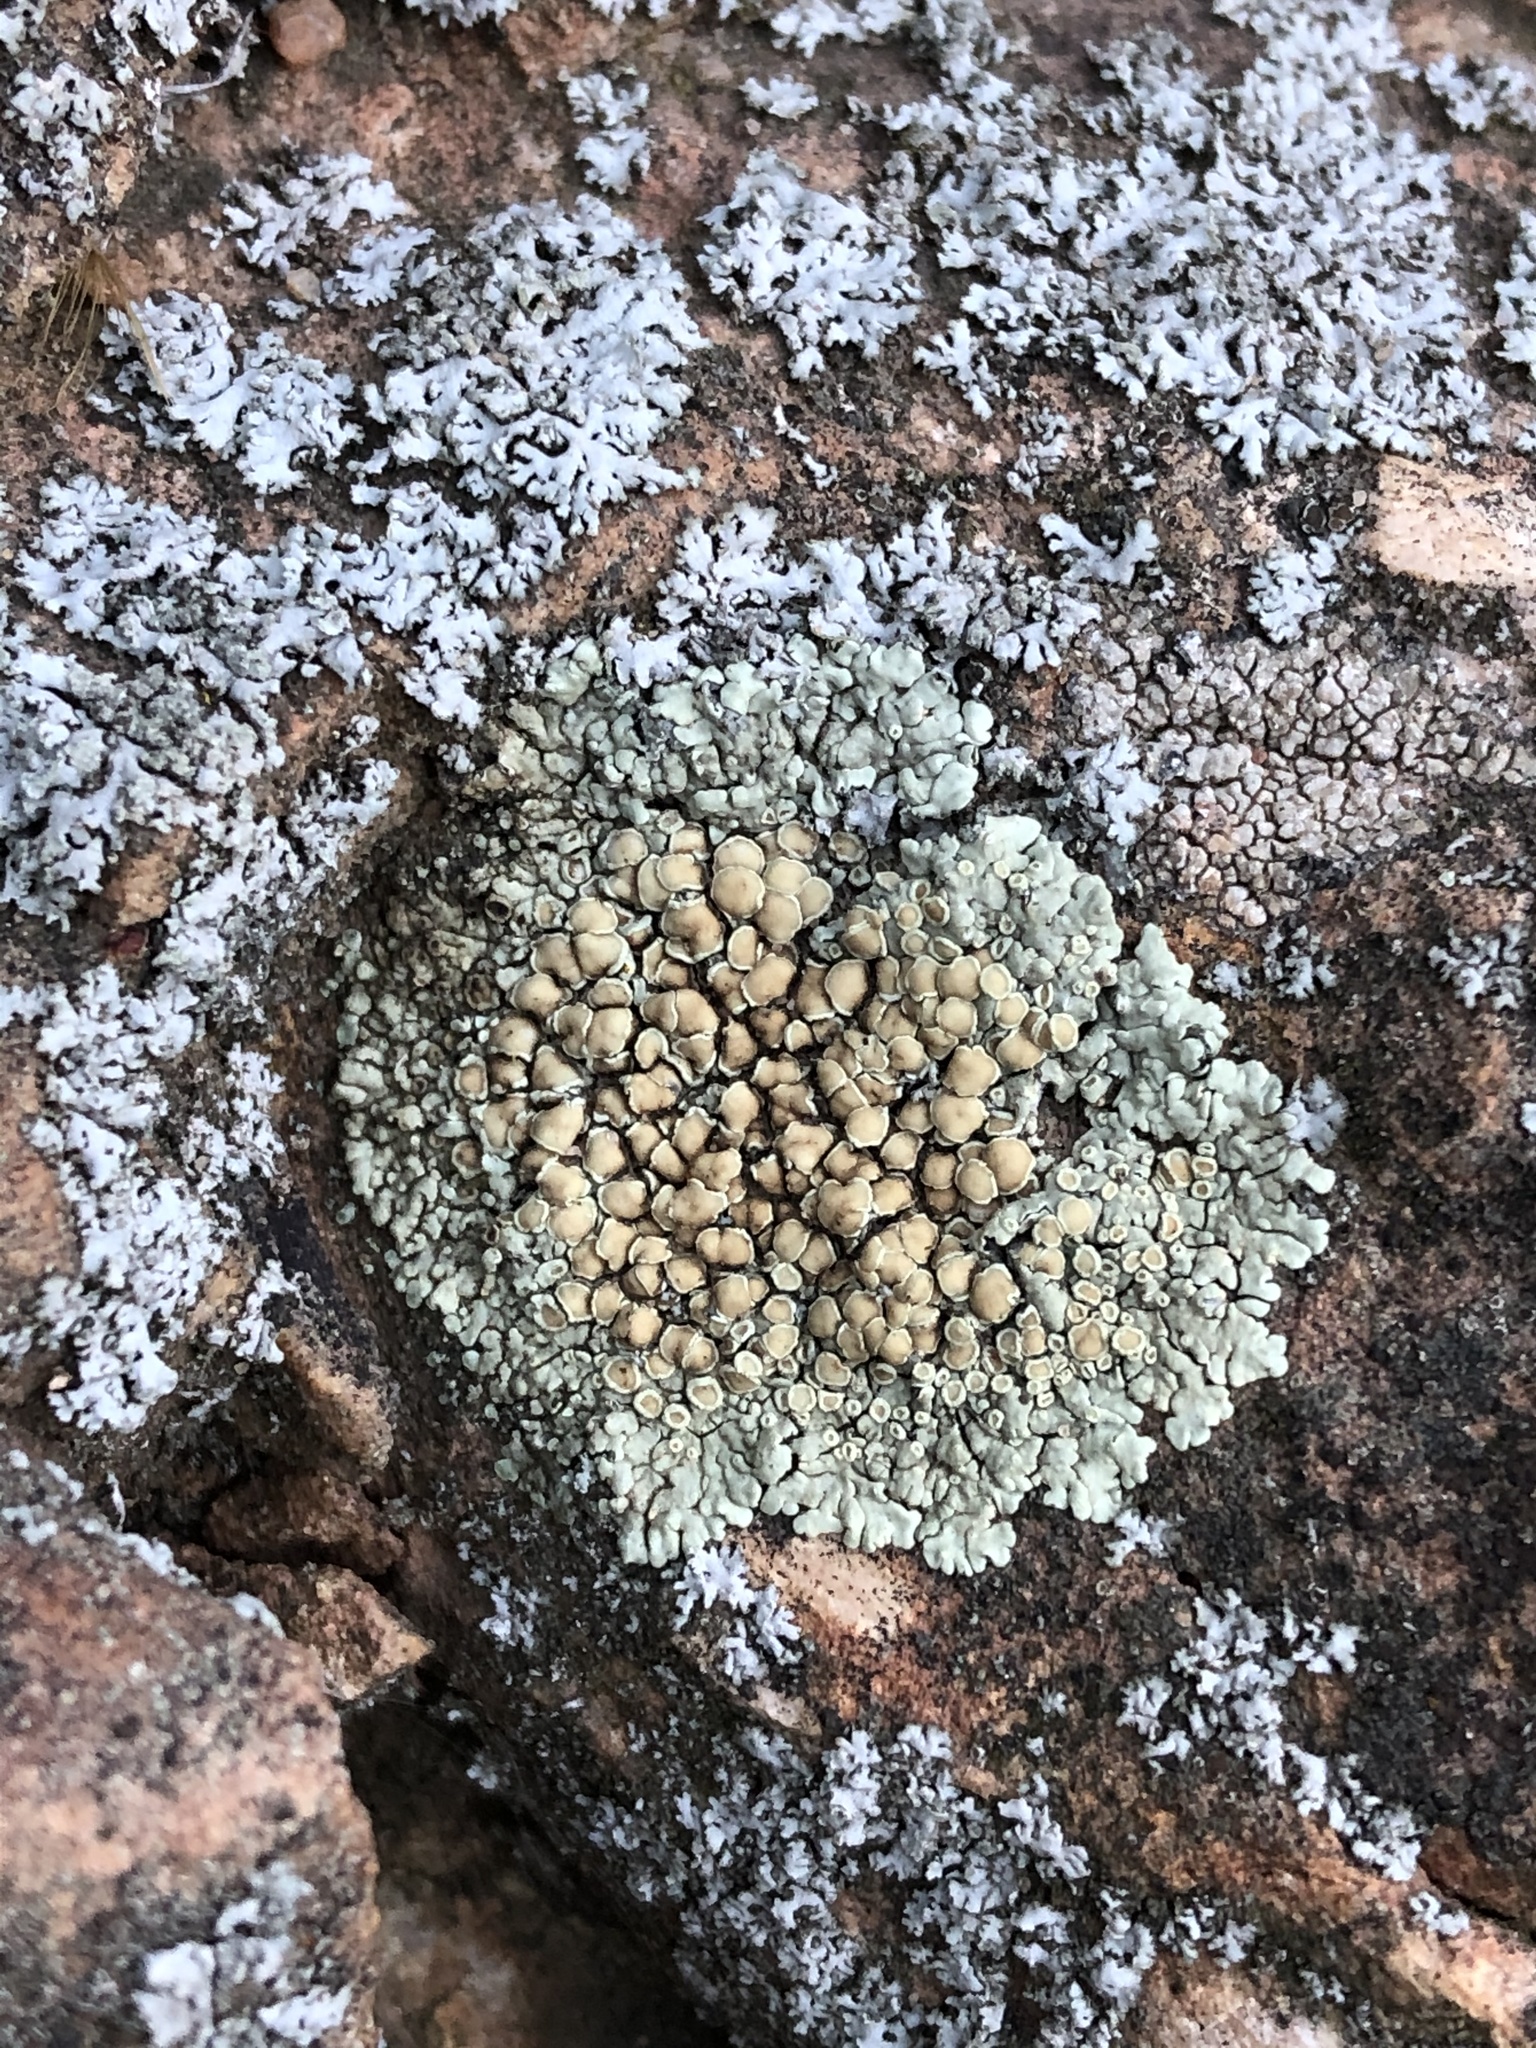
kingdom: Fungi
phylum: Ascomycota
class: Lecanoromycetes
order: Lecanorales
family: Lecanoraceae
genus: Protoparmeliopsis
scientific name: Protoparmeliopsis muralis
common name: Stonewall rim lichen
